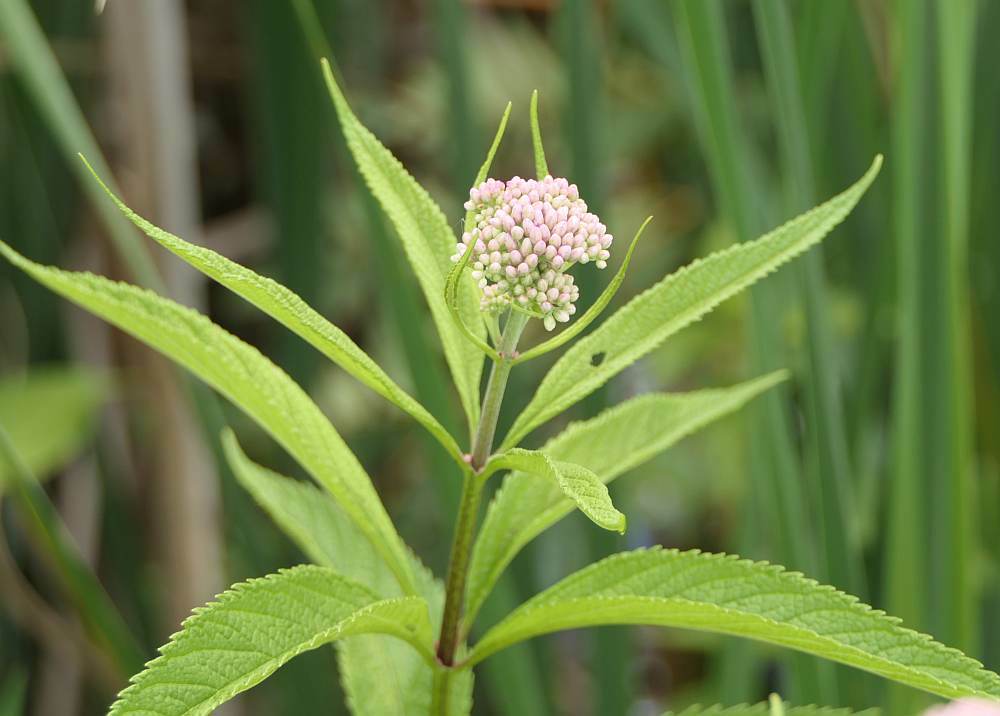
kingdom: Plantae
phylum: Tracheophyta
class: Magnoliopsida
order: Asterales
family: Asteraceae
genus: Eutrochium
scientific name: Eutrochium maculatum
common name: Spotted joe pye weed
